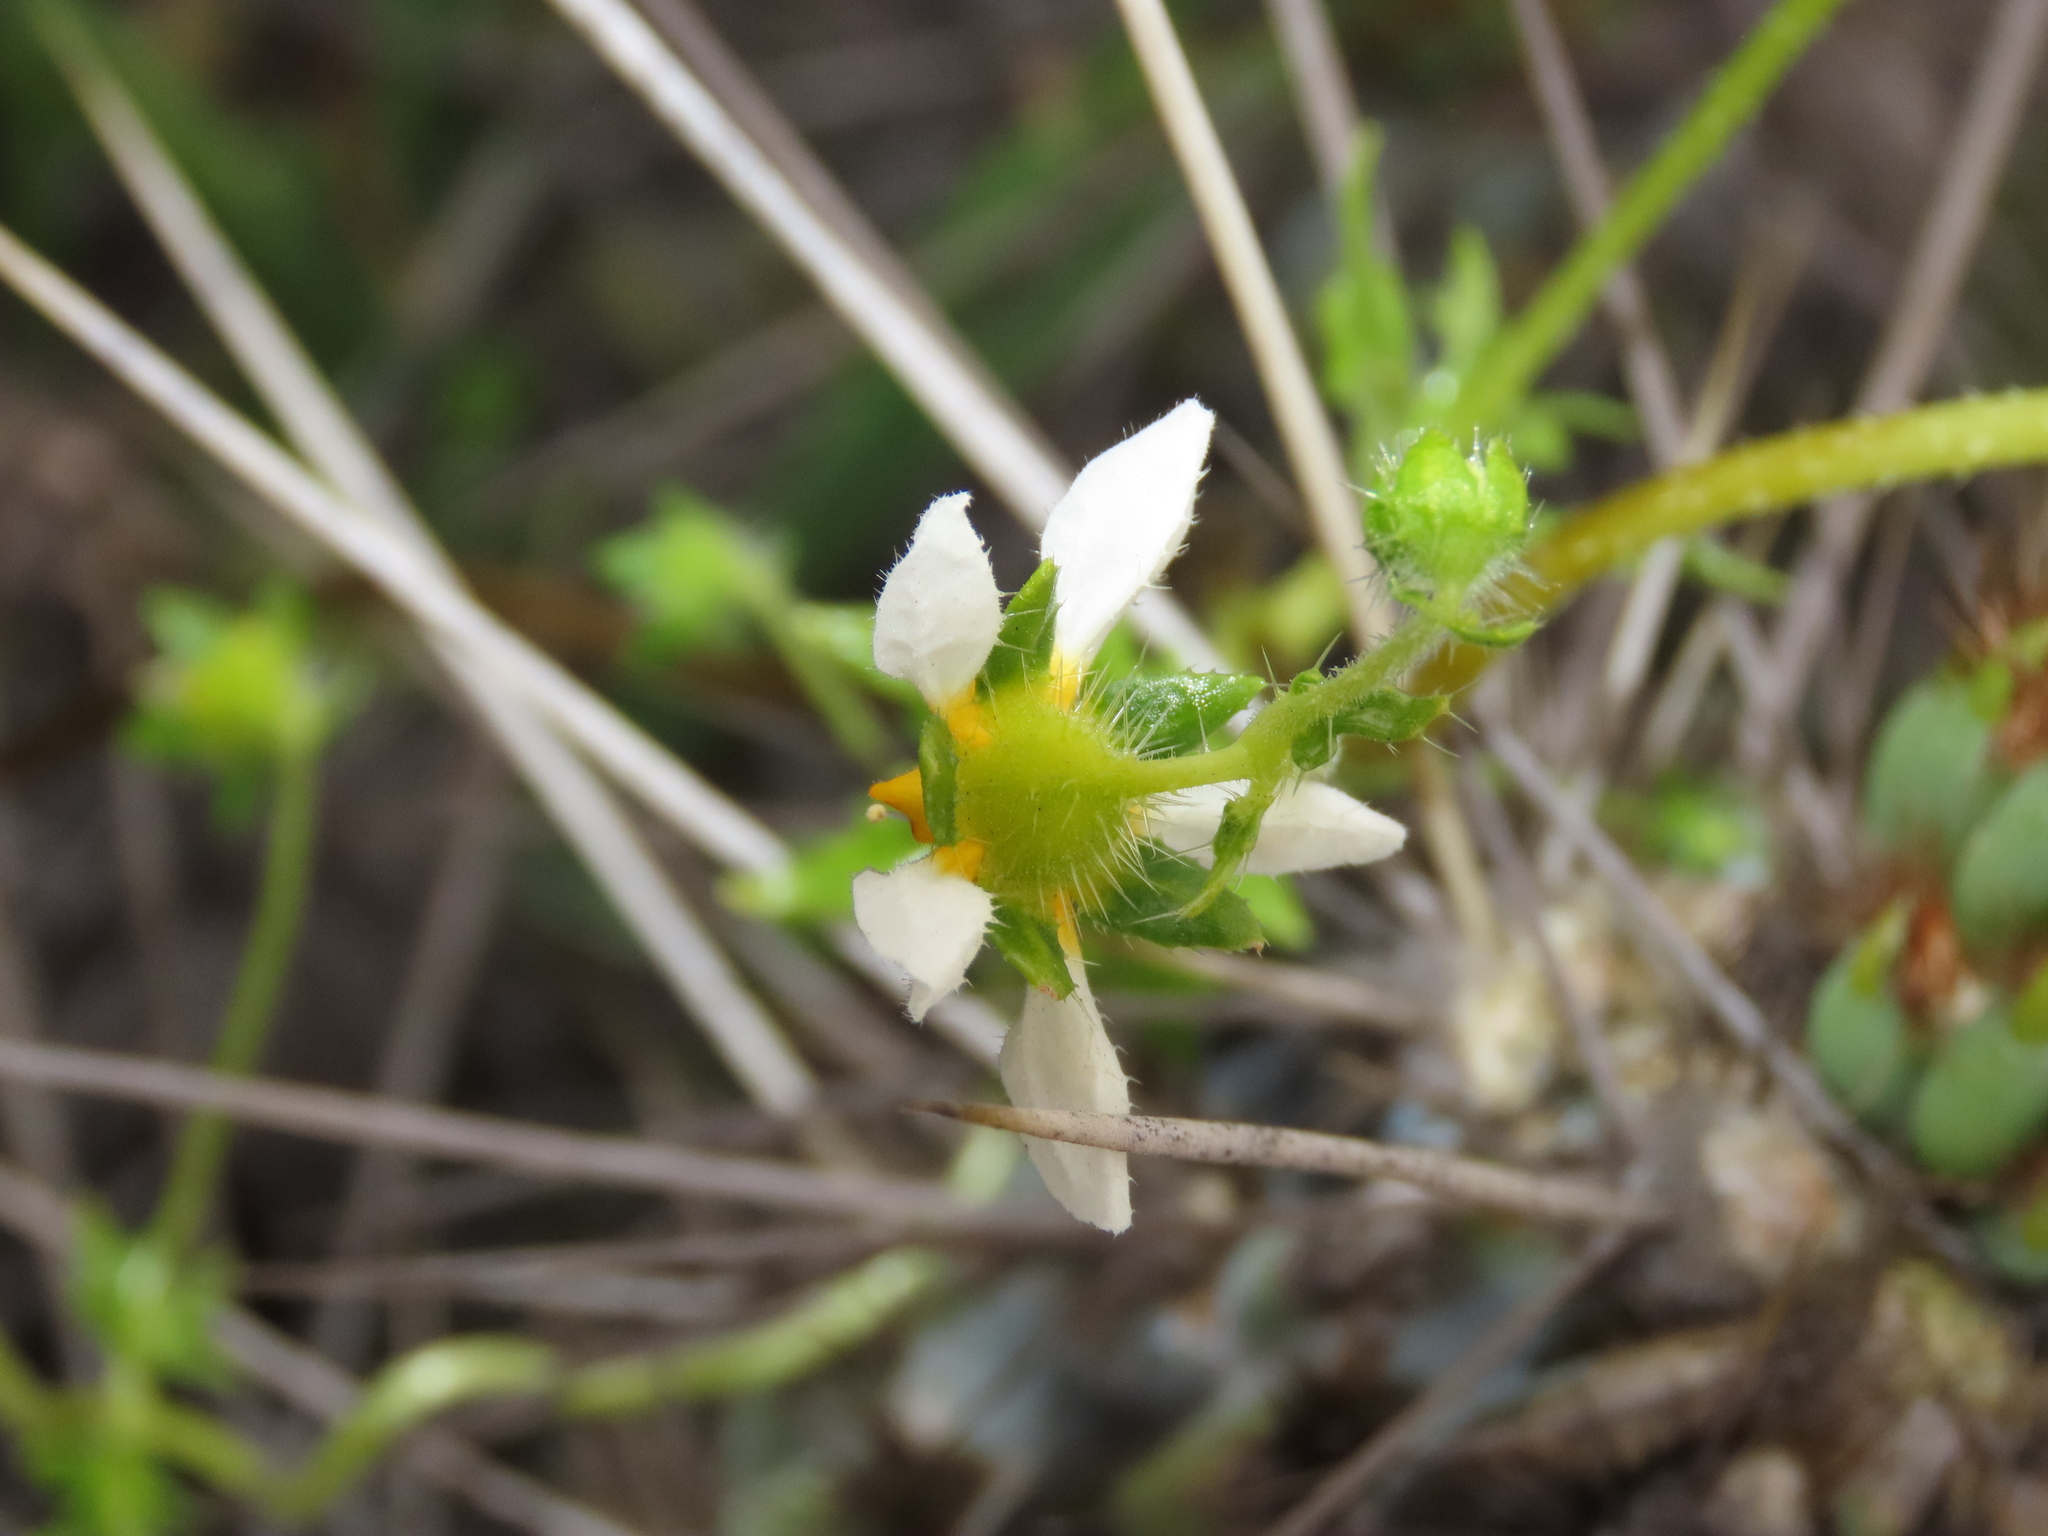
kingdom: Plantae
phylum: Tracheophyta
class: Magnoliopsida
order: Cornales
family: Loasaceae
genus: Loasa
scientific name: Loasa elongata
